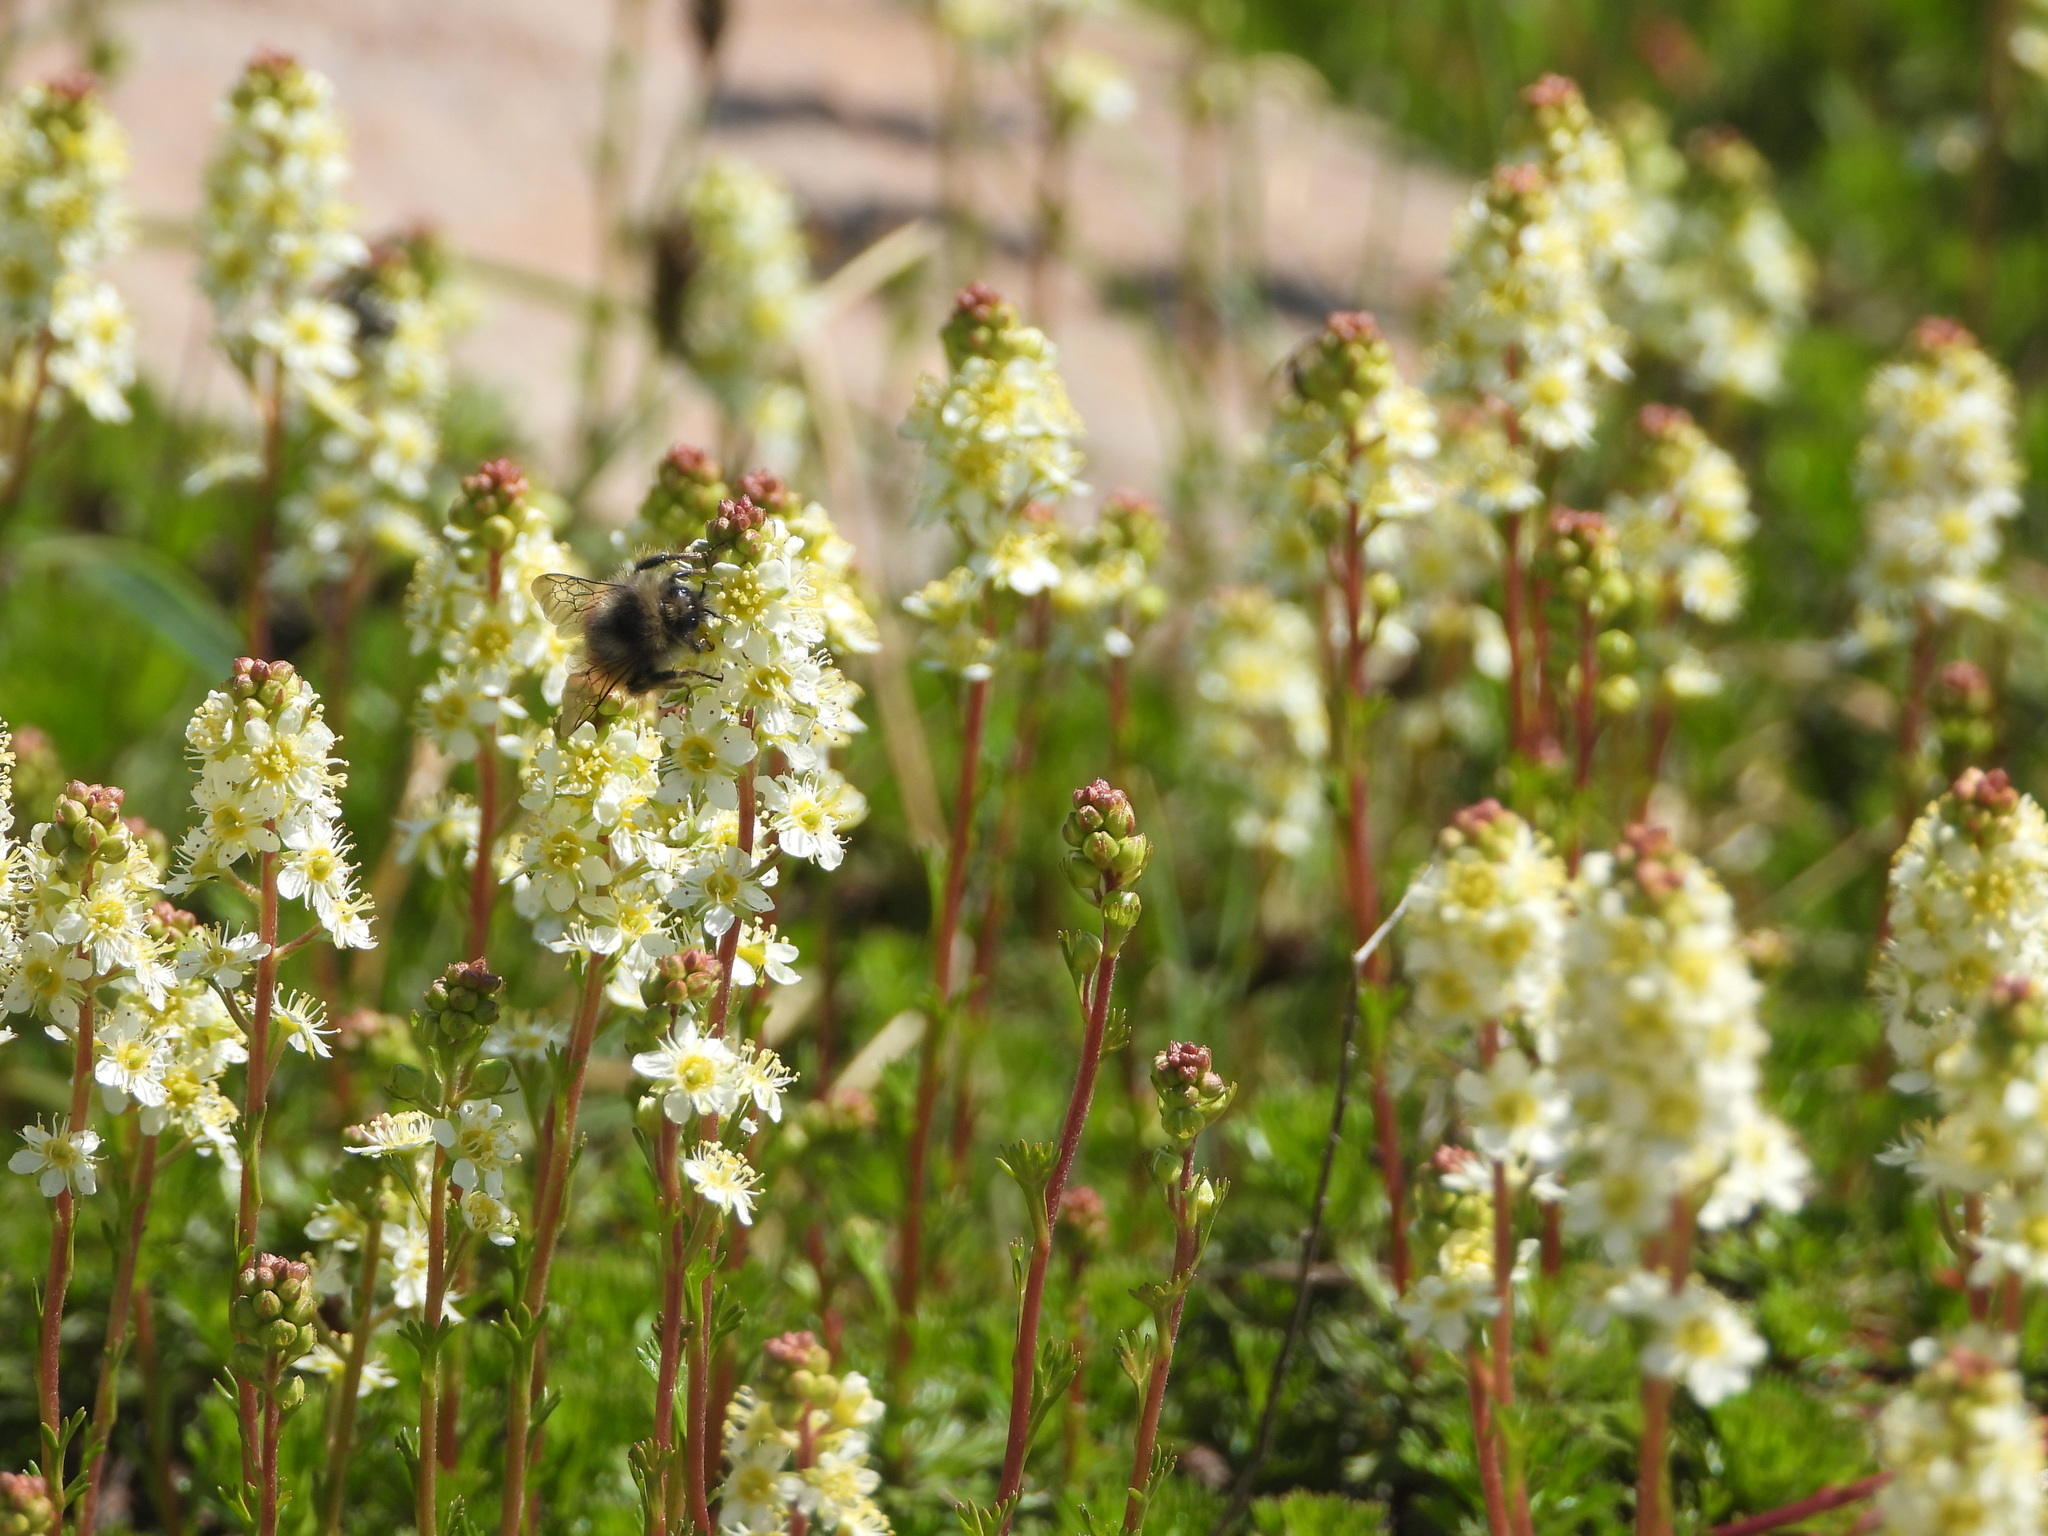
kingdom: Plantae
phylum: Tracheophyta
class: Magnoliopsida
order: Rosales
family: Rosaceae
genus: Luetkea
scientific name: Luetkea pectinata
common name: Partridgefoot
